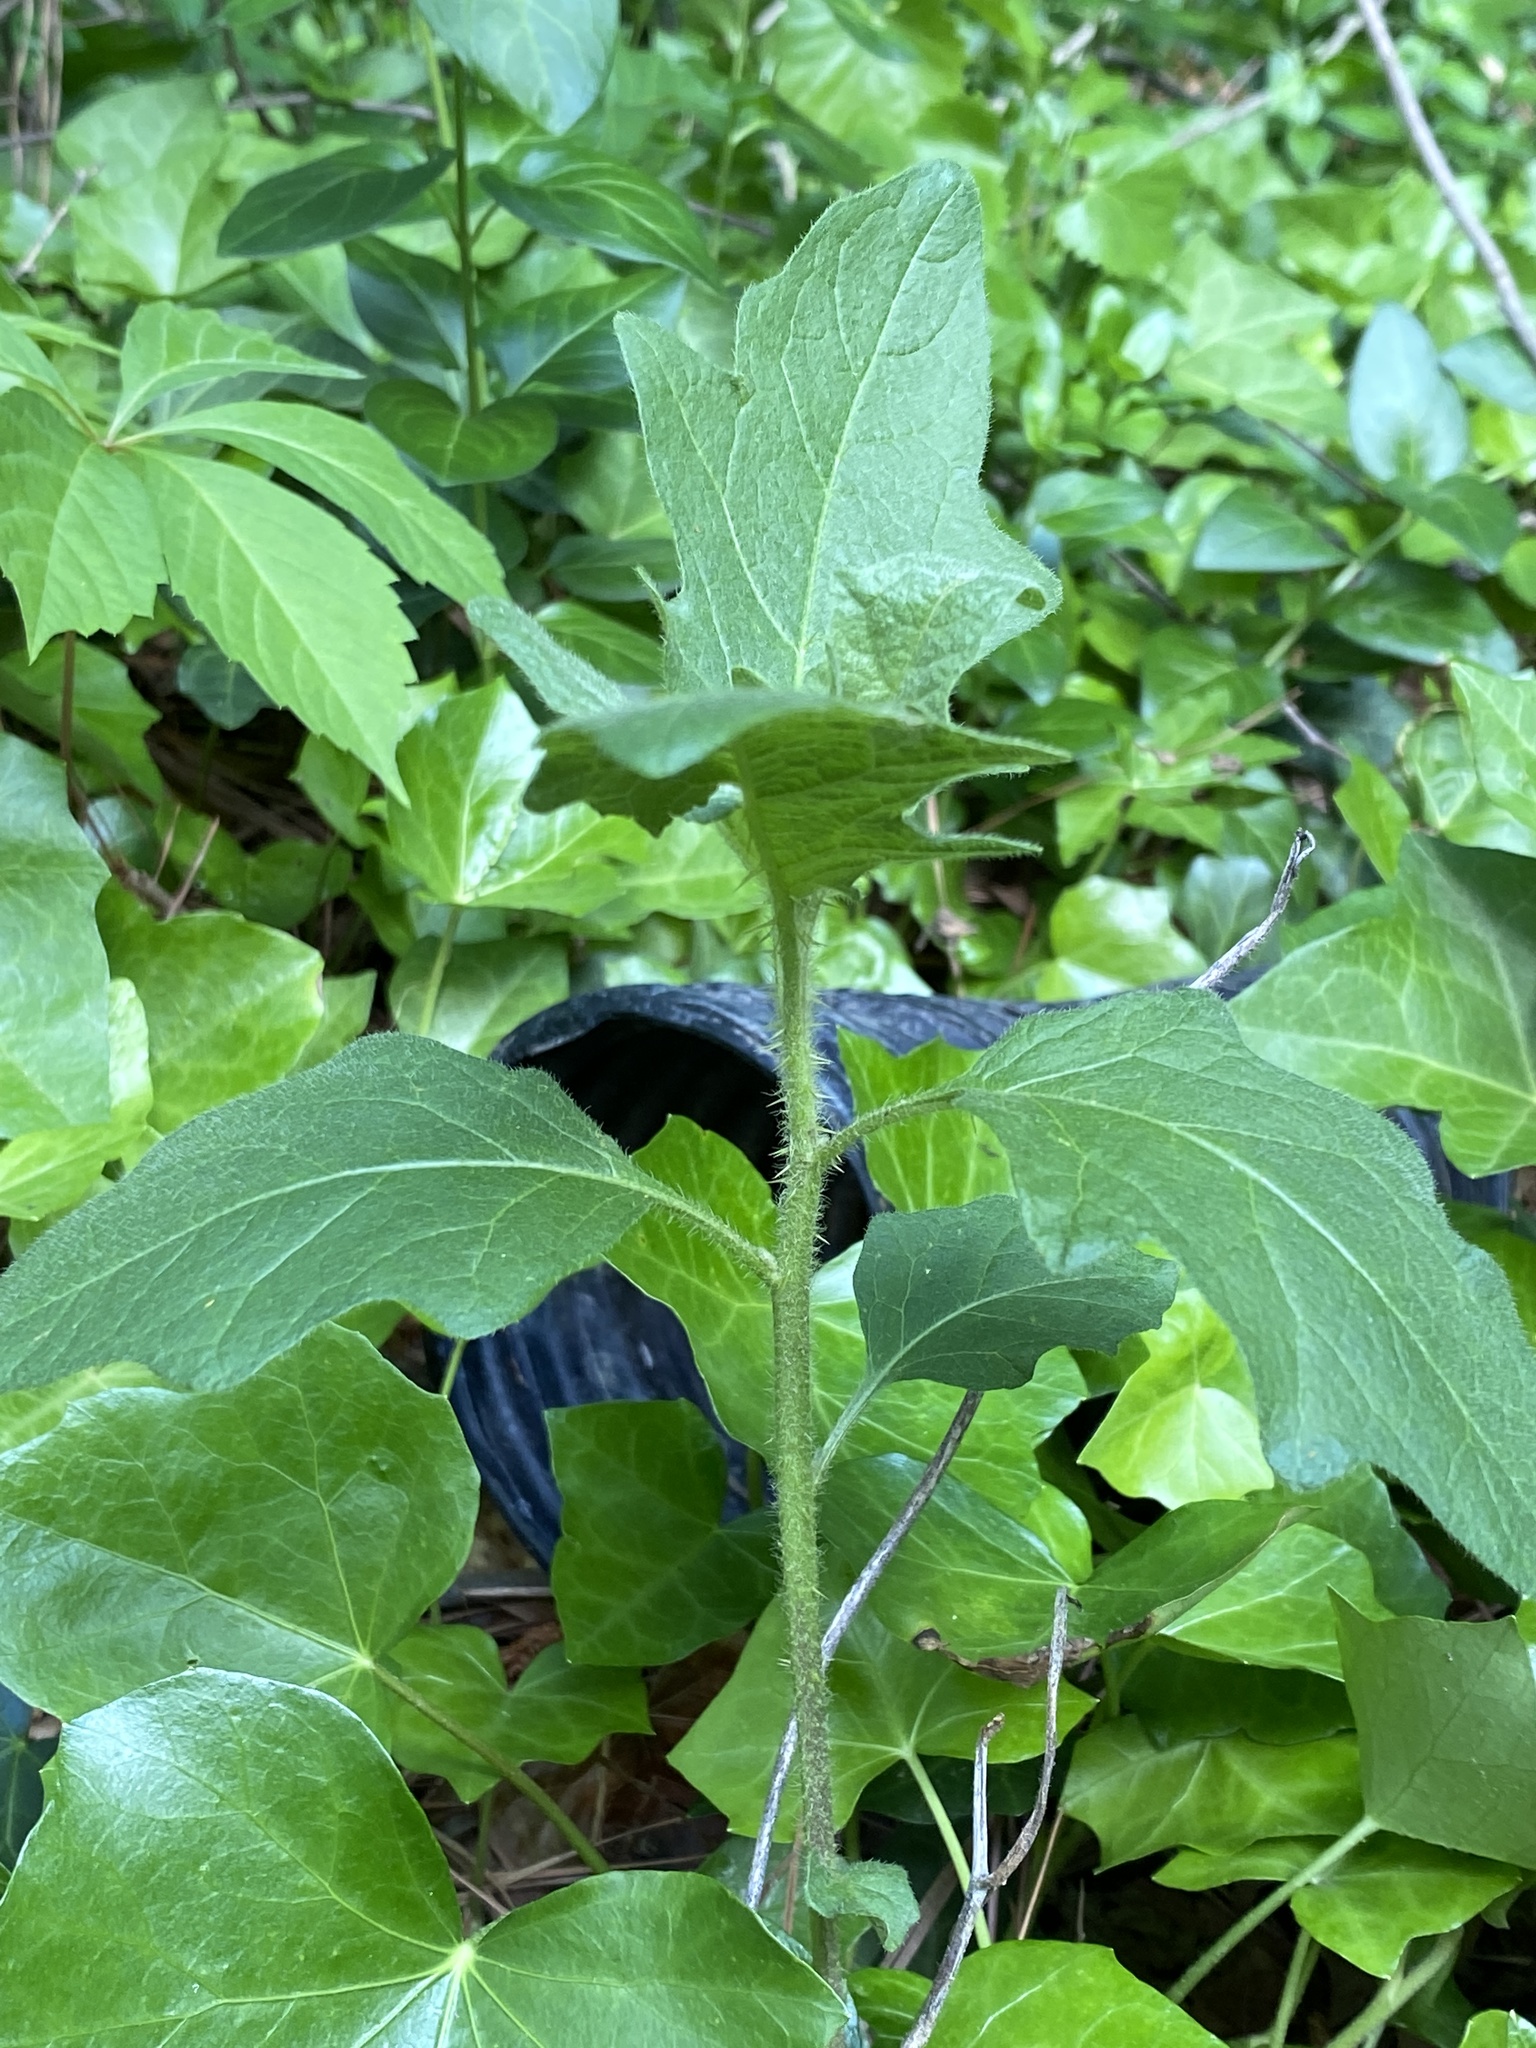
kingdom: Plantae
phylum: Tracheophyta
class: Magnoliopsida
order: Solanales
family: Solanaceae
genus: Solanum
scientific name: Solanum carolinense
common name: Horse-nettle
